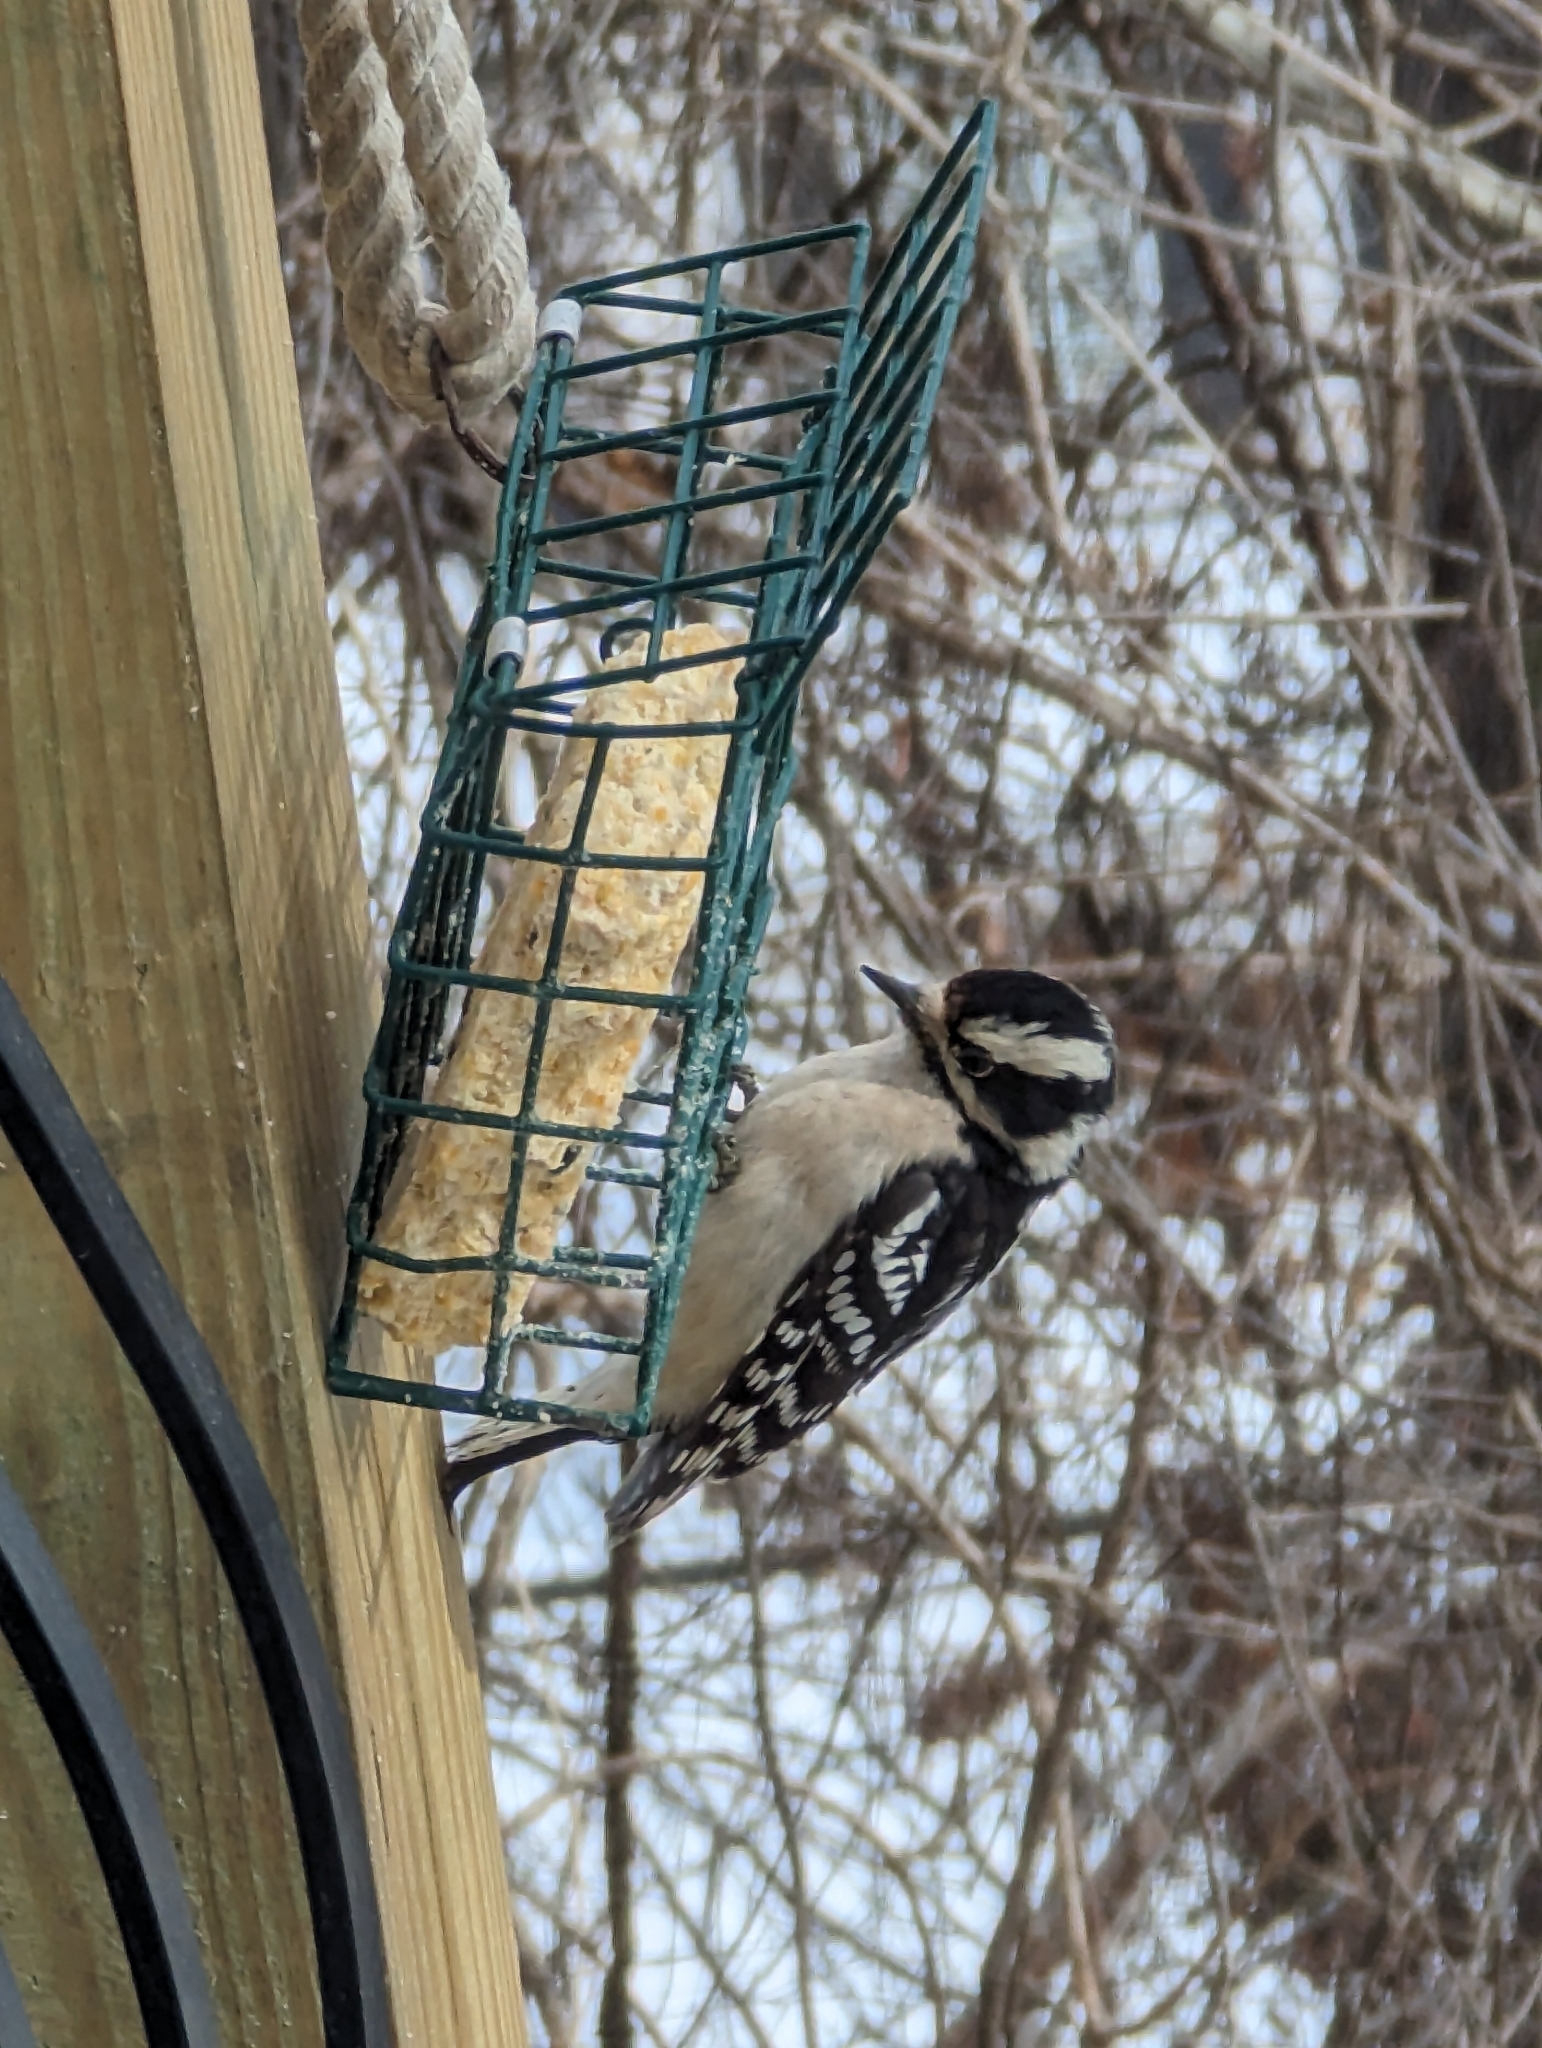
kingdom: Animalia
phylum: Chordata
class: Aves
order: Piciformes
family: Picidae
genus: Dryobates
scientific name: Dryobates pubescens
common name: Downy woodpecker
